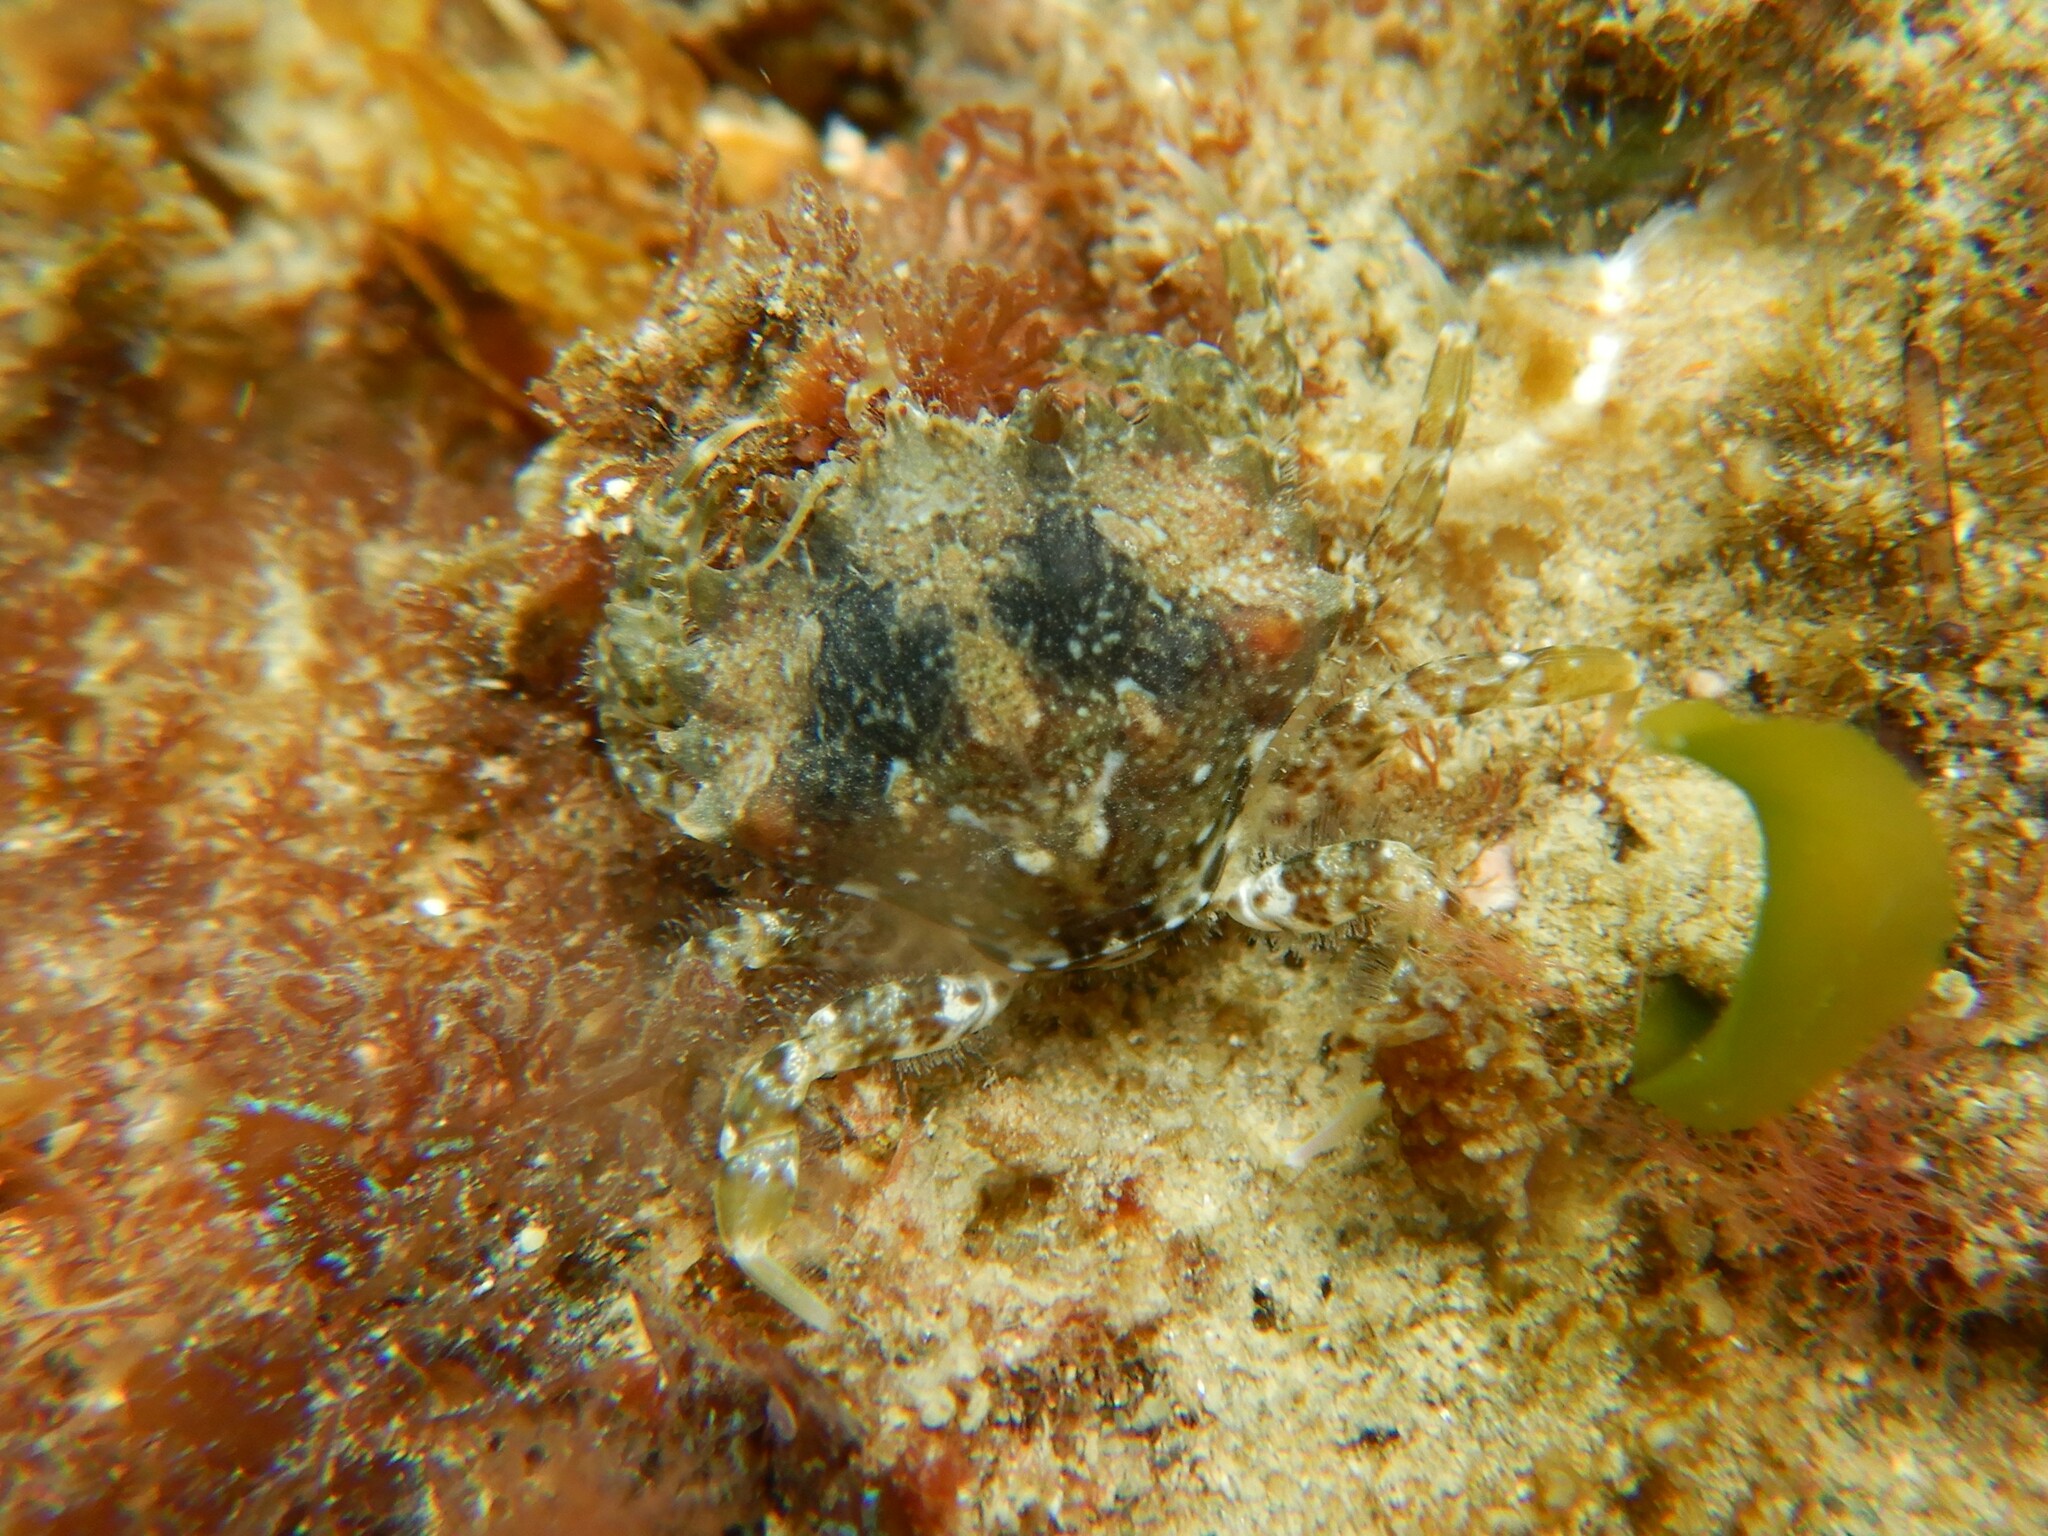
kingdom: Animalia
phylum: Arthropoda
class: Malacostraca
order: Decapoda
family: Pirimelidae
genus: Pirimela
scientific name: Pirimela denticulata
